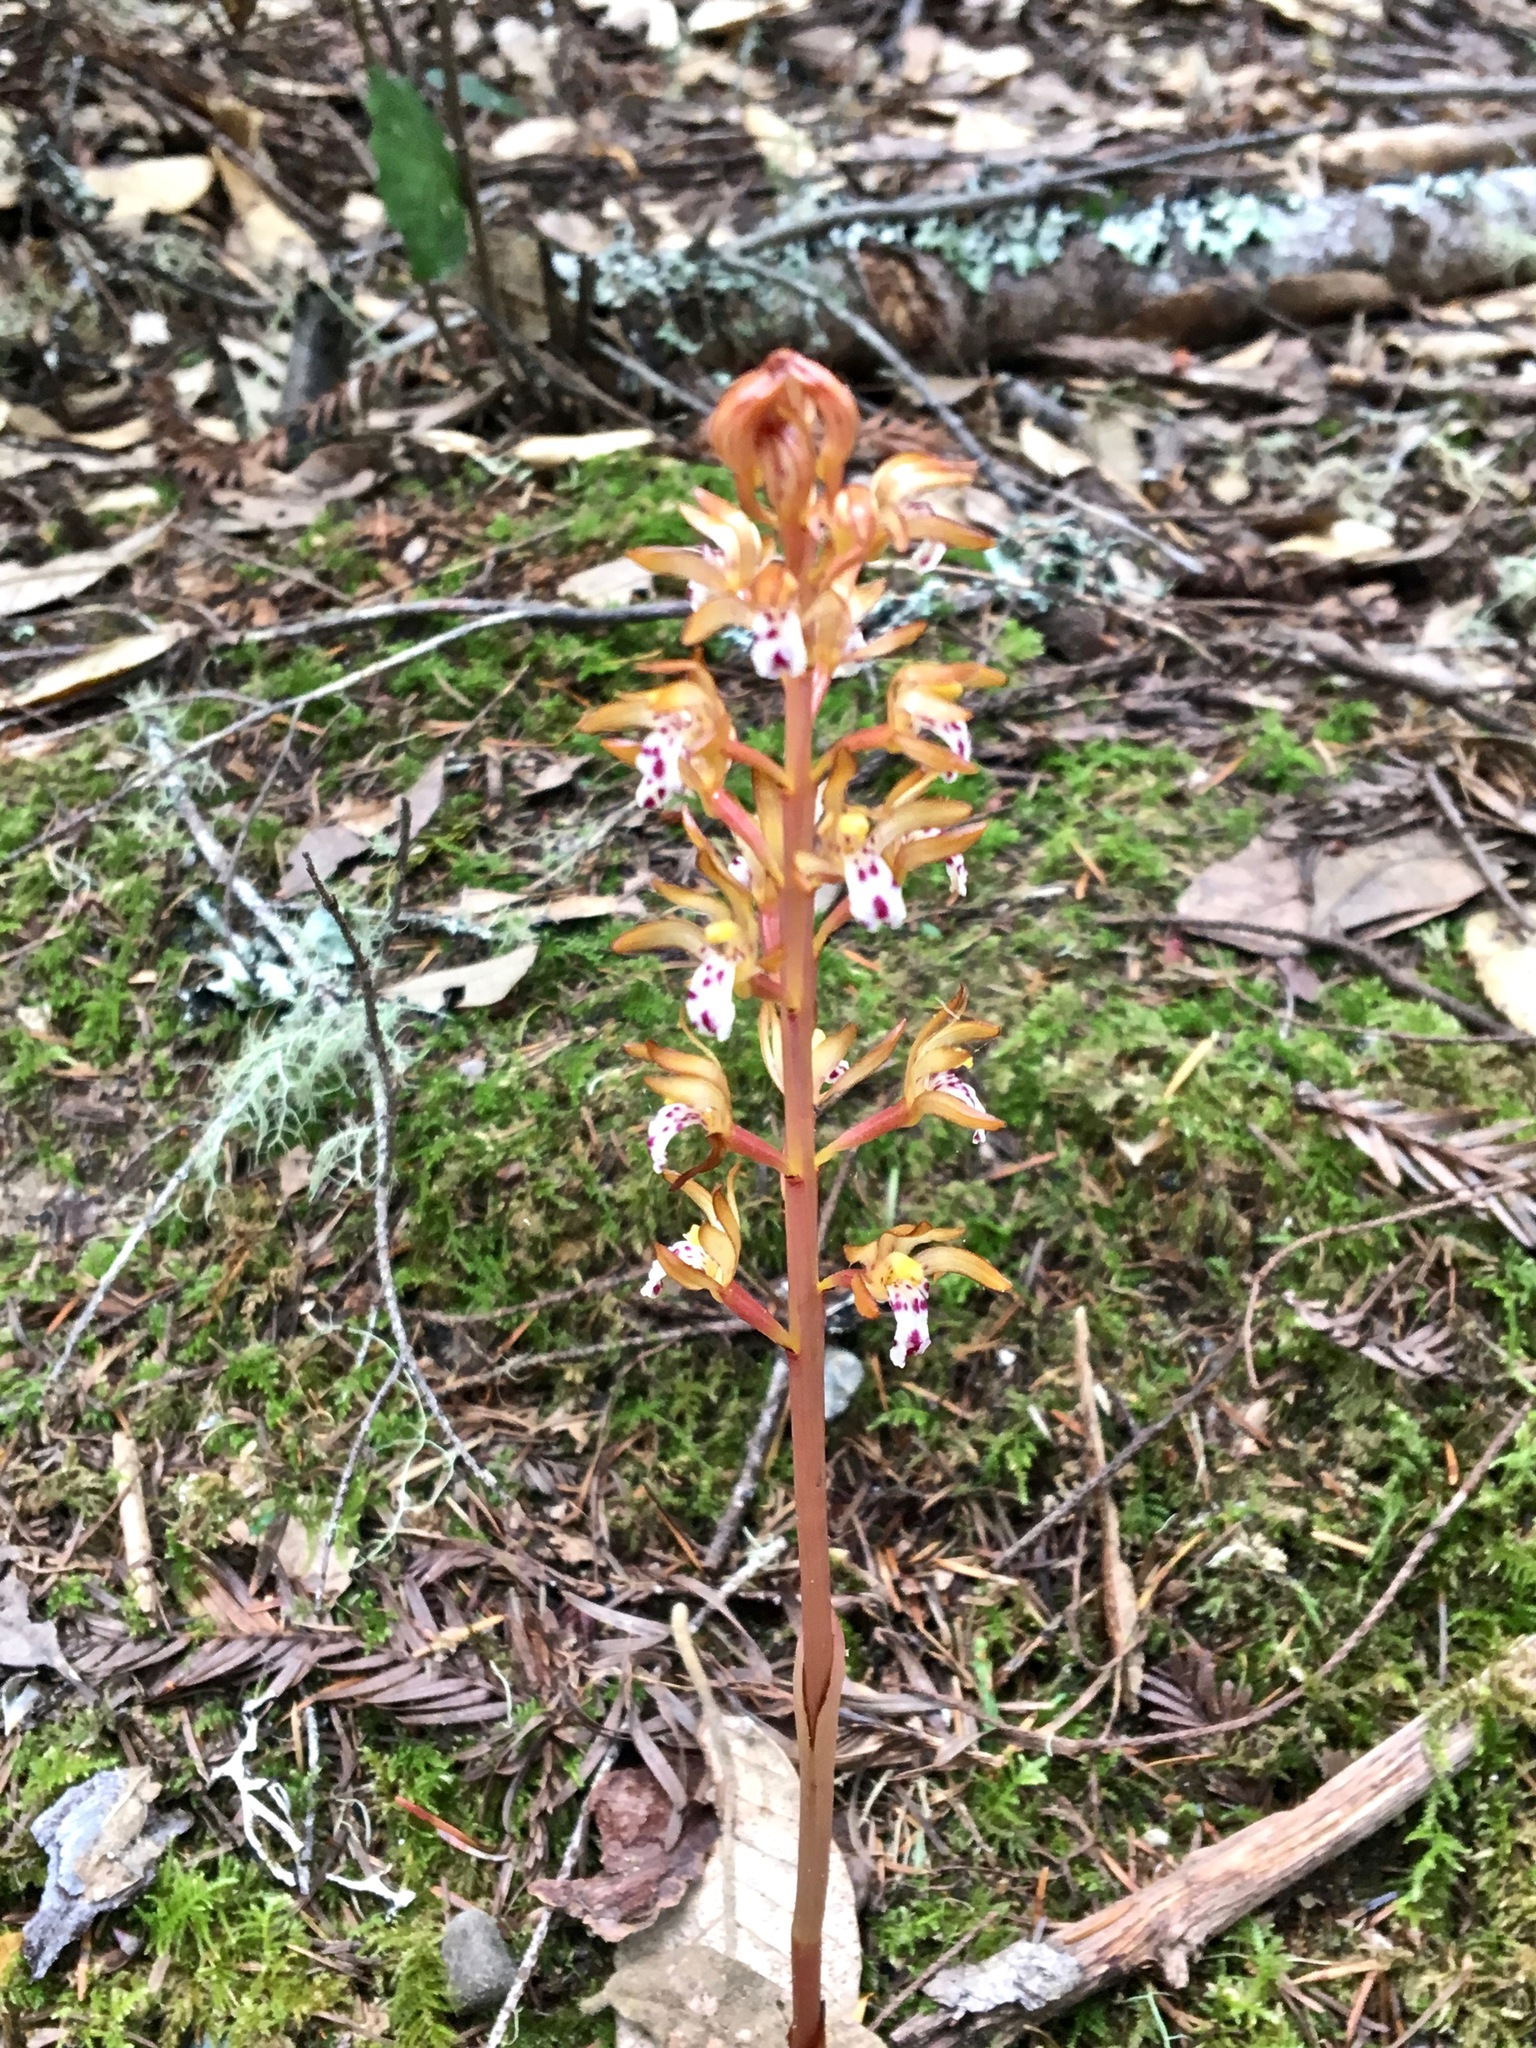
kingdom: Plantae
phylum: Tracheophyta
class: Liliopsida
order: Asparagales
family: Orchidaceae
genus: Corallorhiza
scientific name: Corallorhiza maculata
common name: Spotted coralroot
